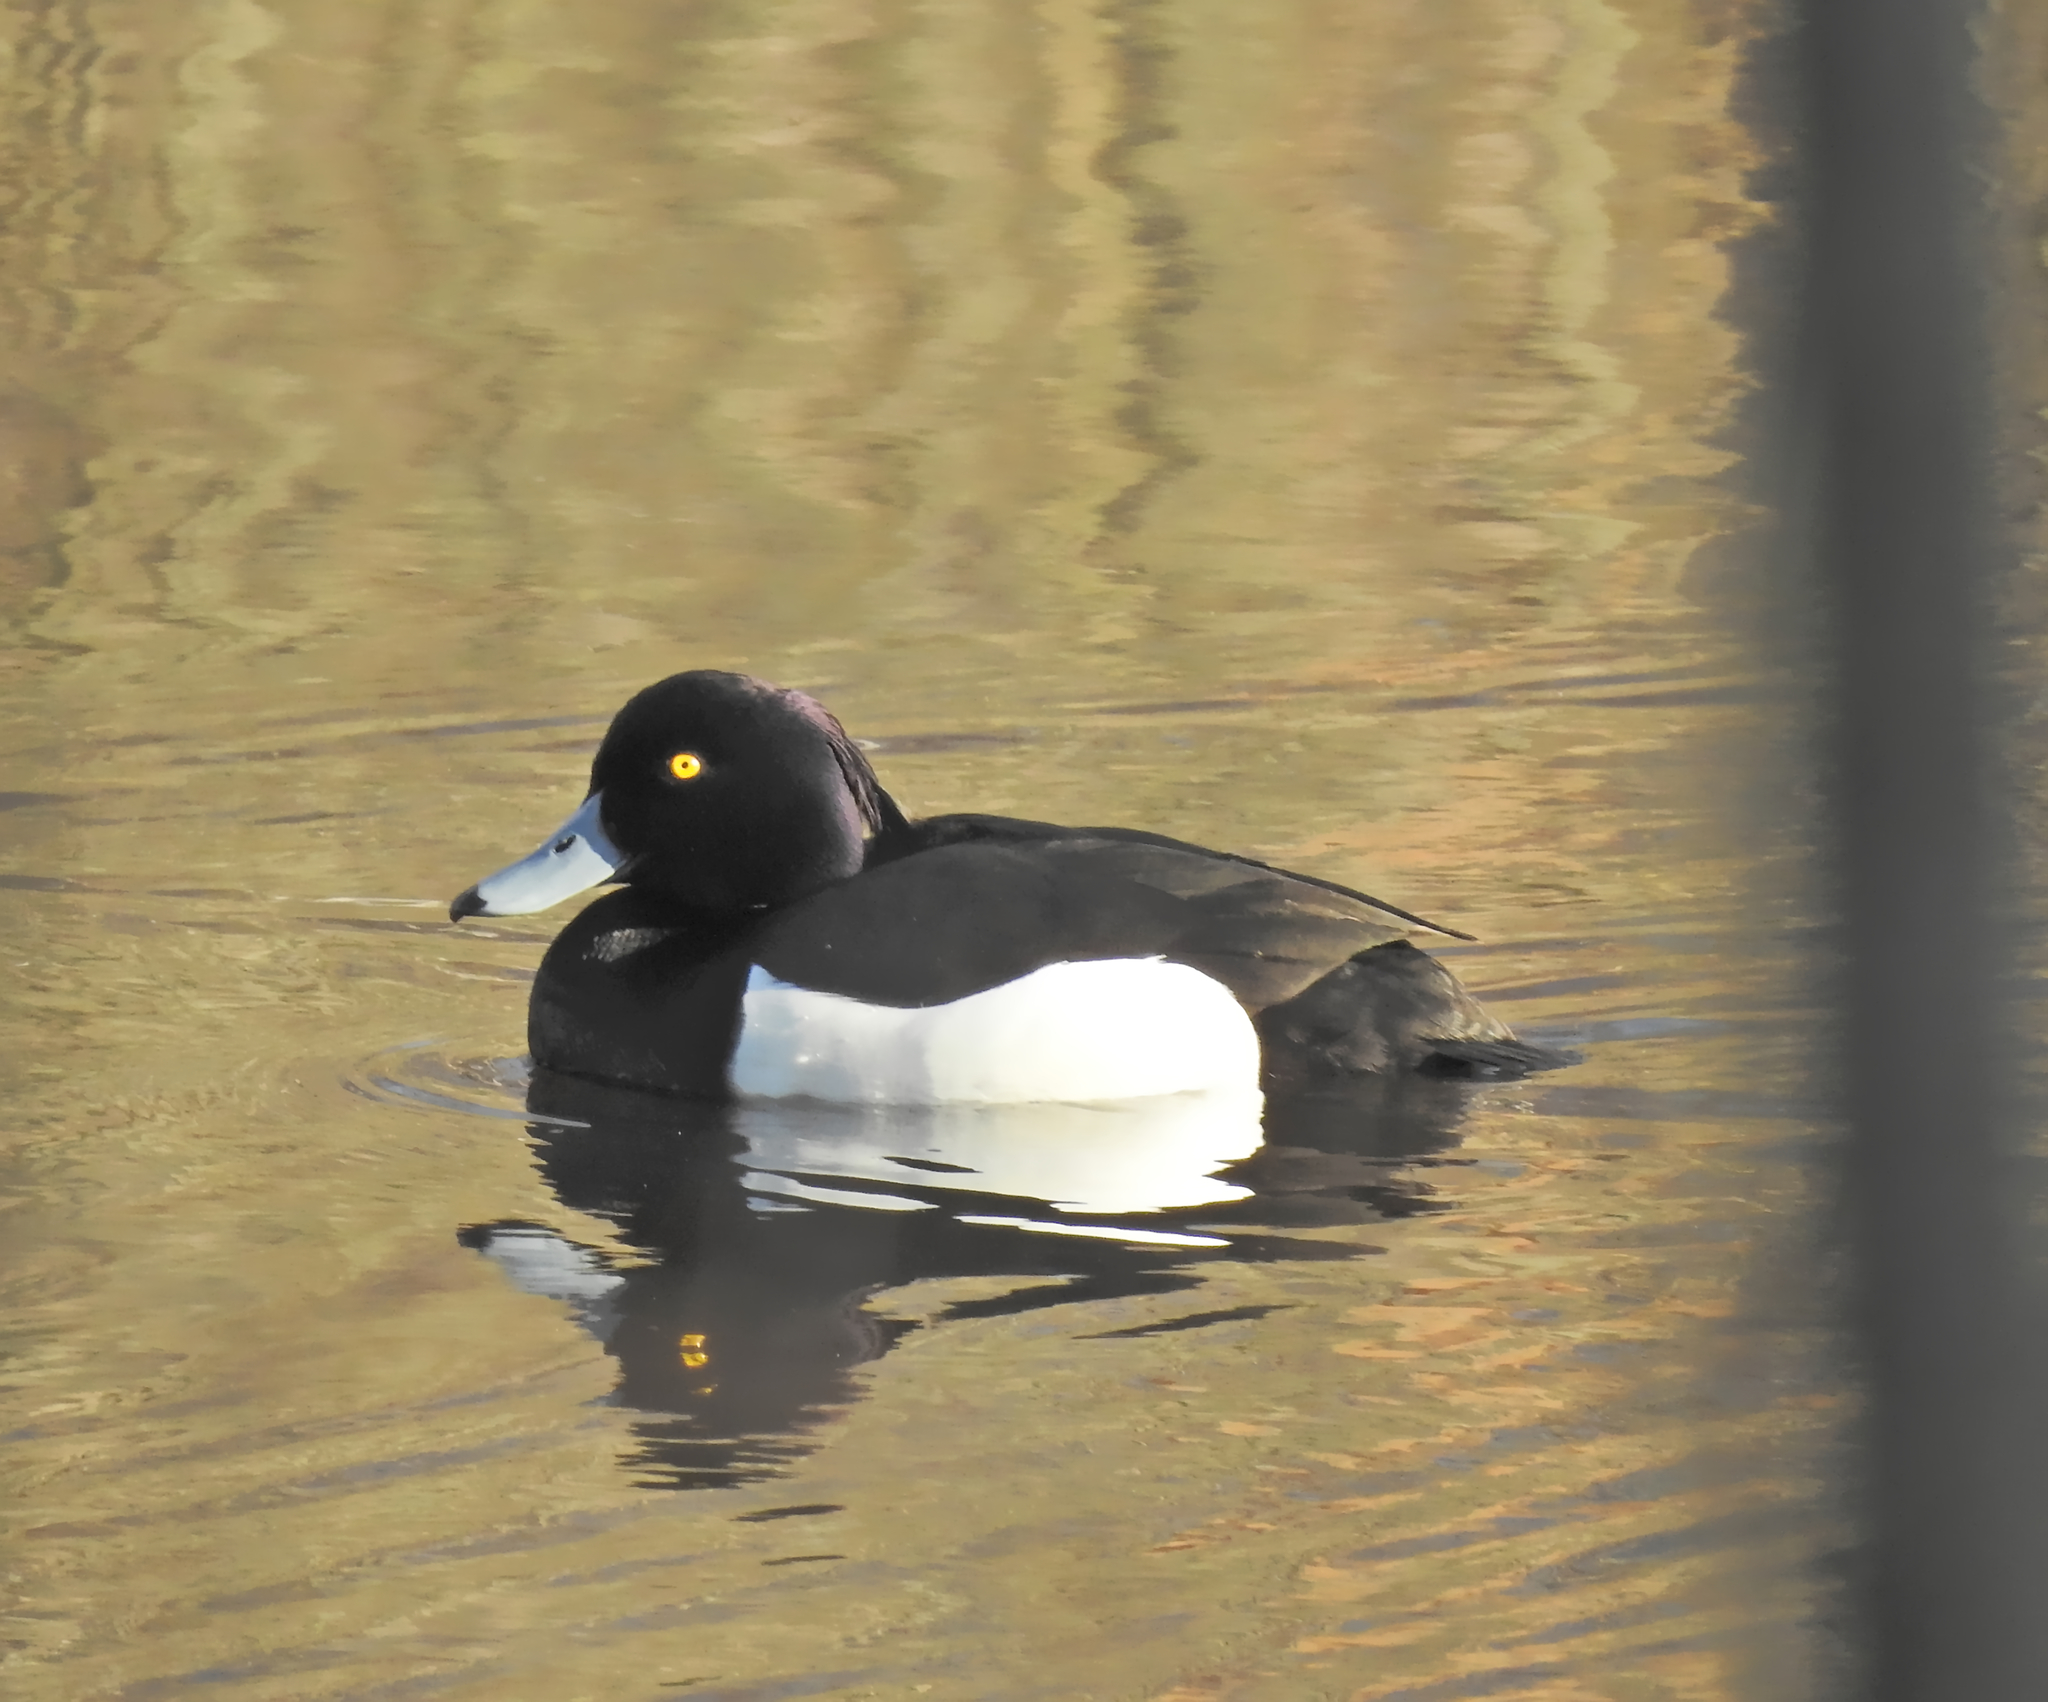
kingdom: Animalia
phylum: Chordata
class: Aves
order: Anseriformes
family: Anatidae
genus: Aythya
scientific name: Aythya fuligula
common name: Tufted duck
